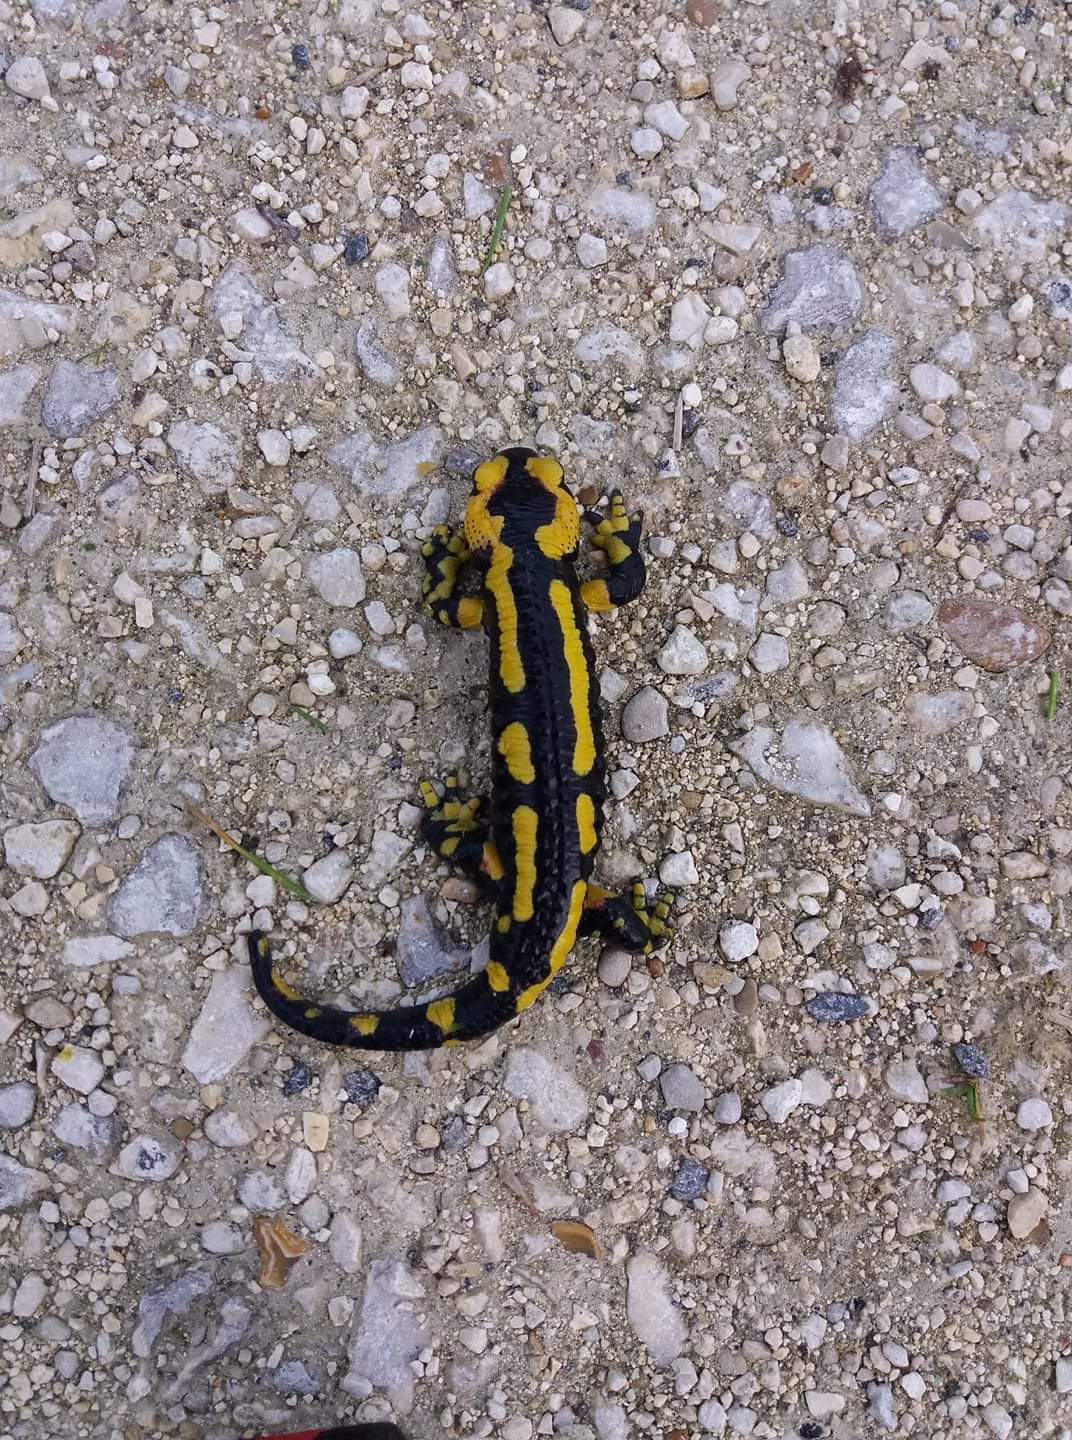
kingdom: Animalia
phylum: Chordata
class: Amphibia
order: Caudata
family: Salamandridae
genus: Salamandra
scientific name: Salamandra salamandra
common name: Fire salamander
